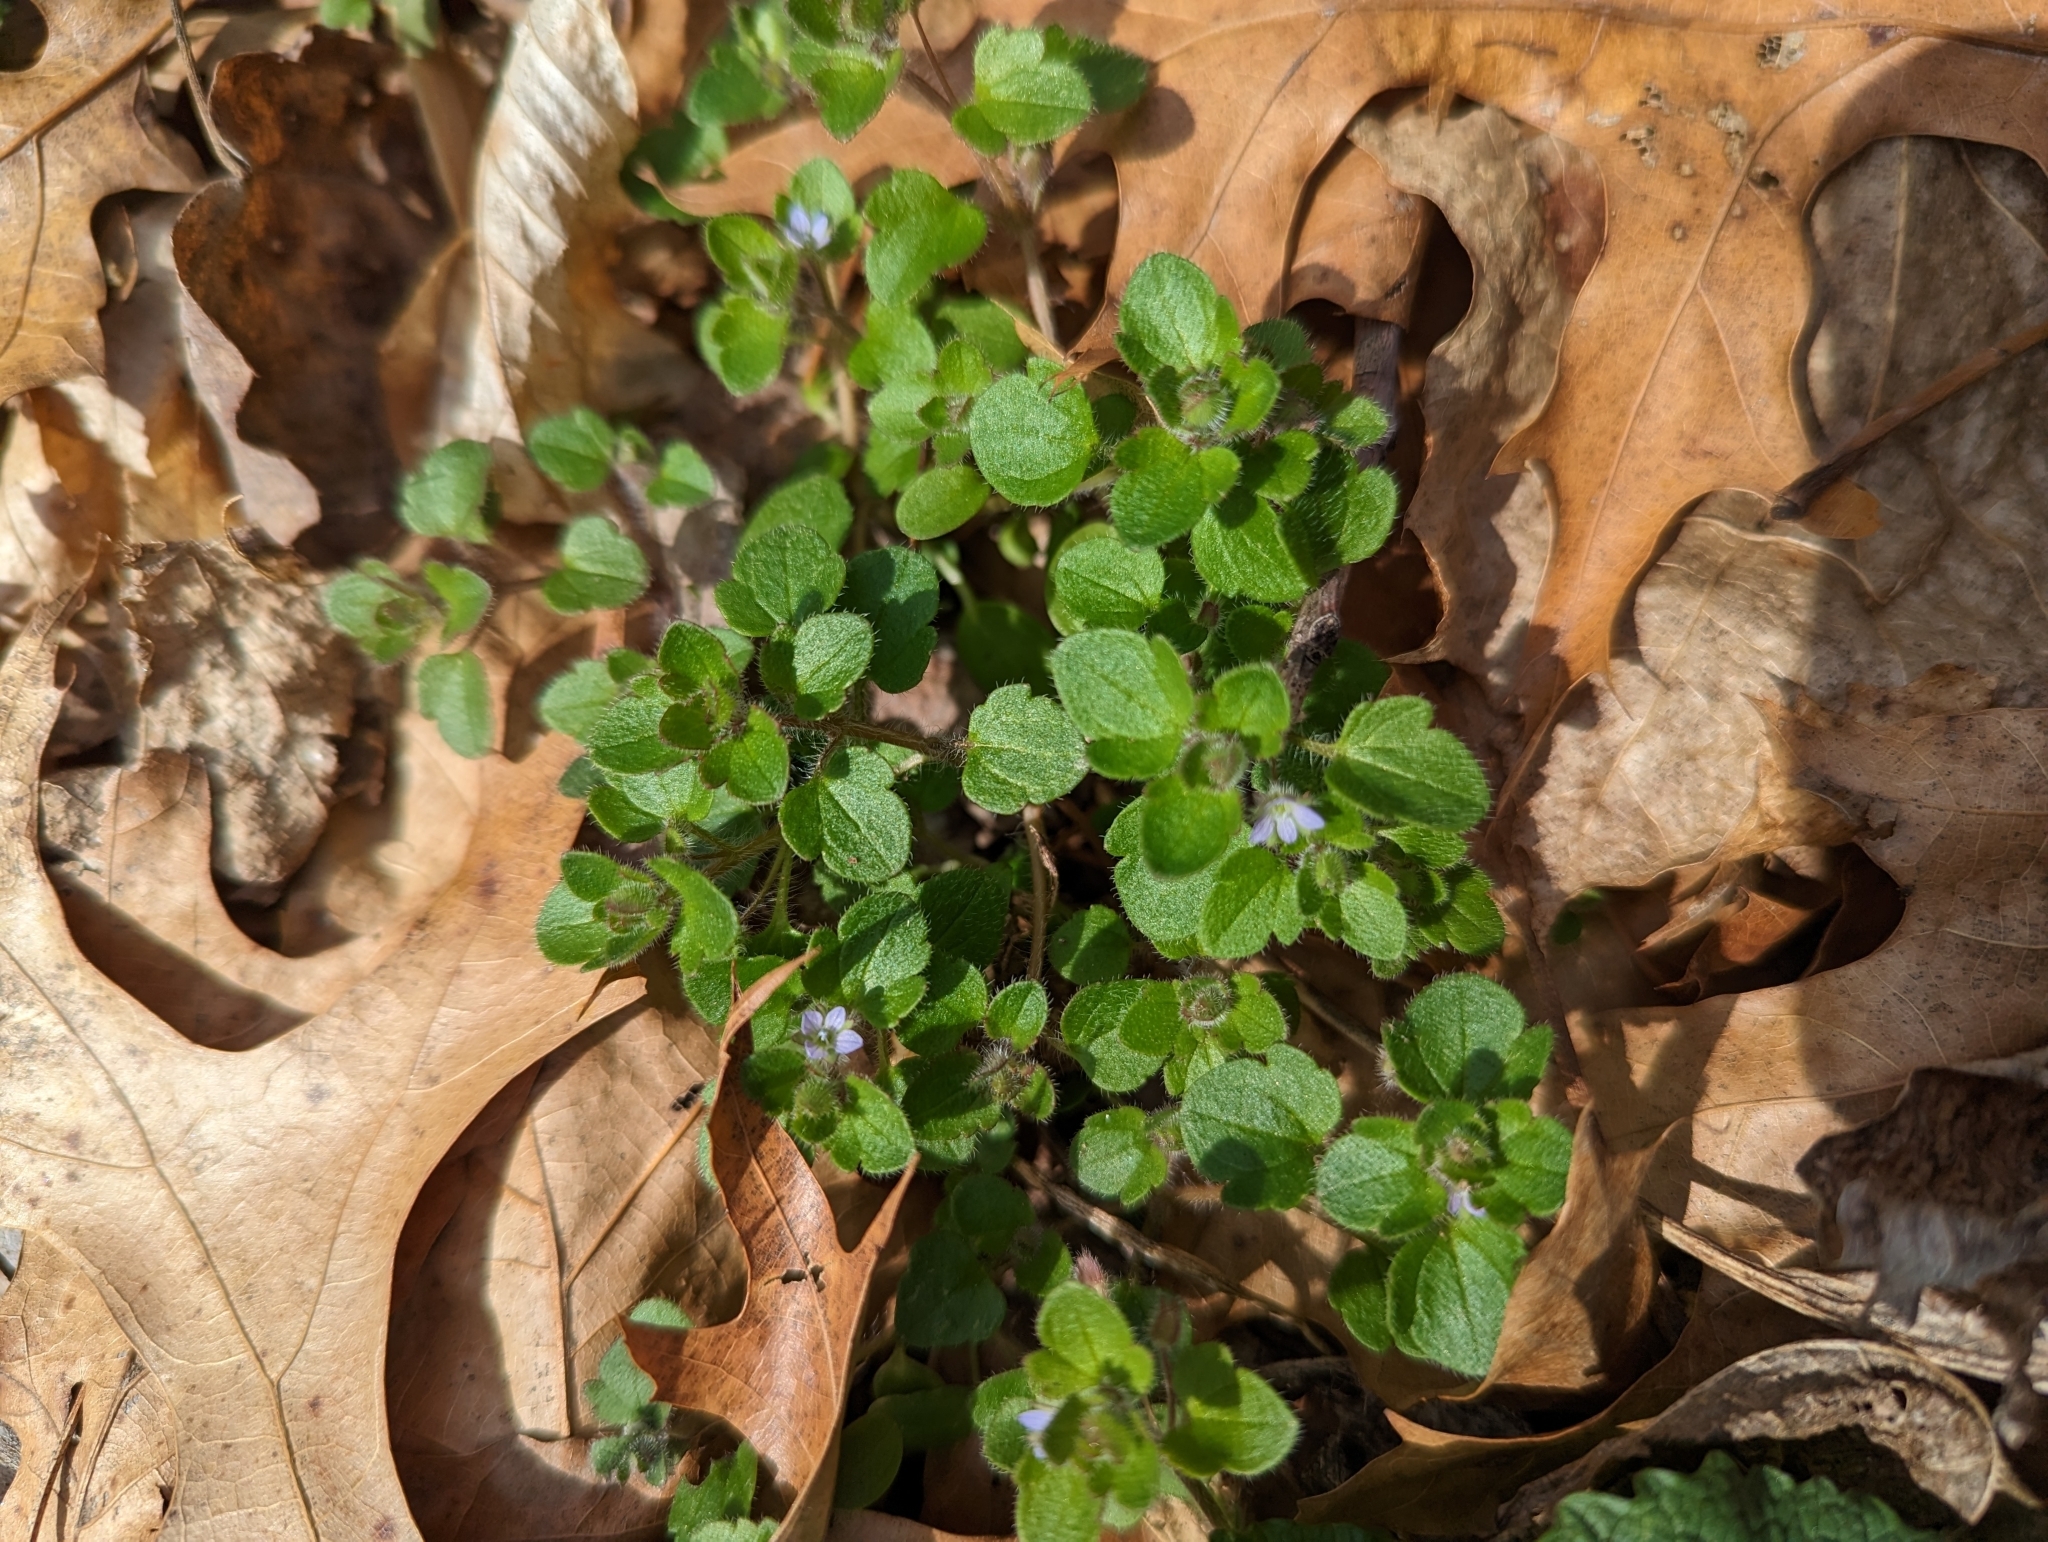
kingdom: Plantae
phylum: Tracheophyta
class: Magnoliopsida
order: Lamiales
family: Plantaginaceae
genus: Veronica
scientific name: Veronica hederifolia
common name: Ivy-leaved speedwell
